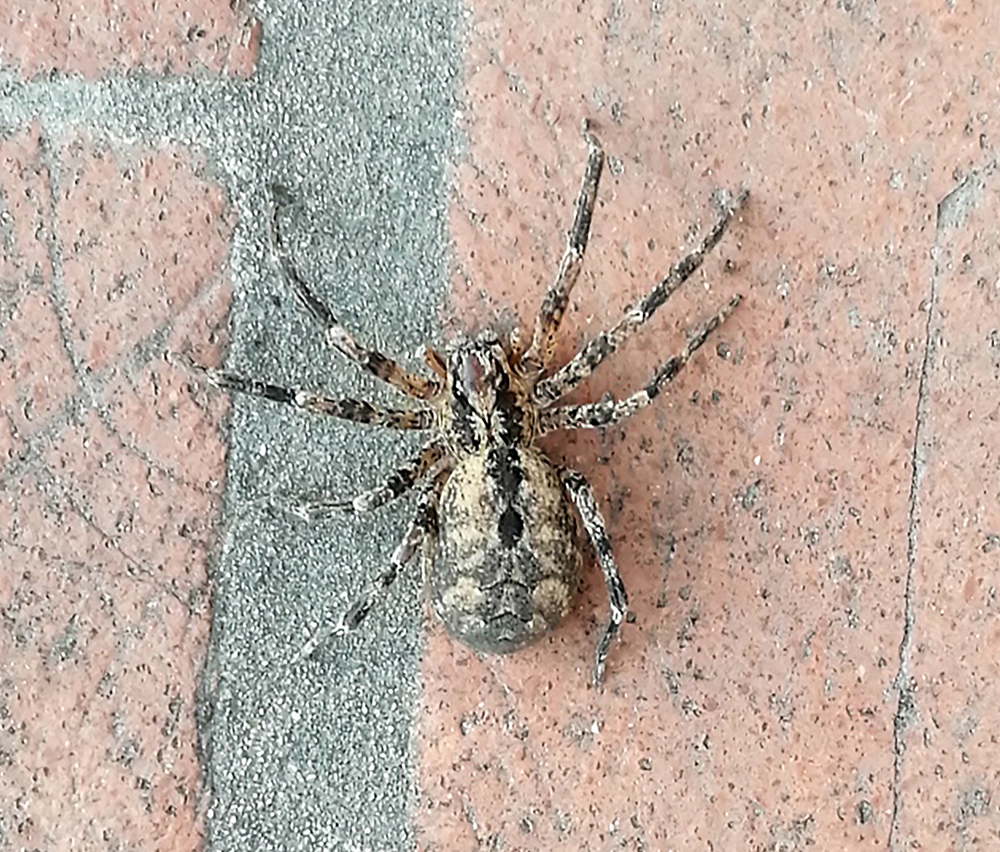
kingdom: Animalia
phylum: Arthropoda
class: Arachnida
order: Araneae
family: Zoropsidae
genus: Zoropsis
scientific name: Zoropsis spinimana
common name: Zoropsid spider
